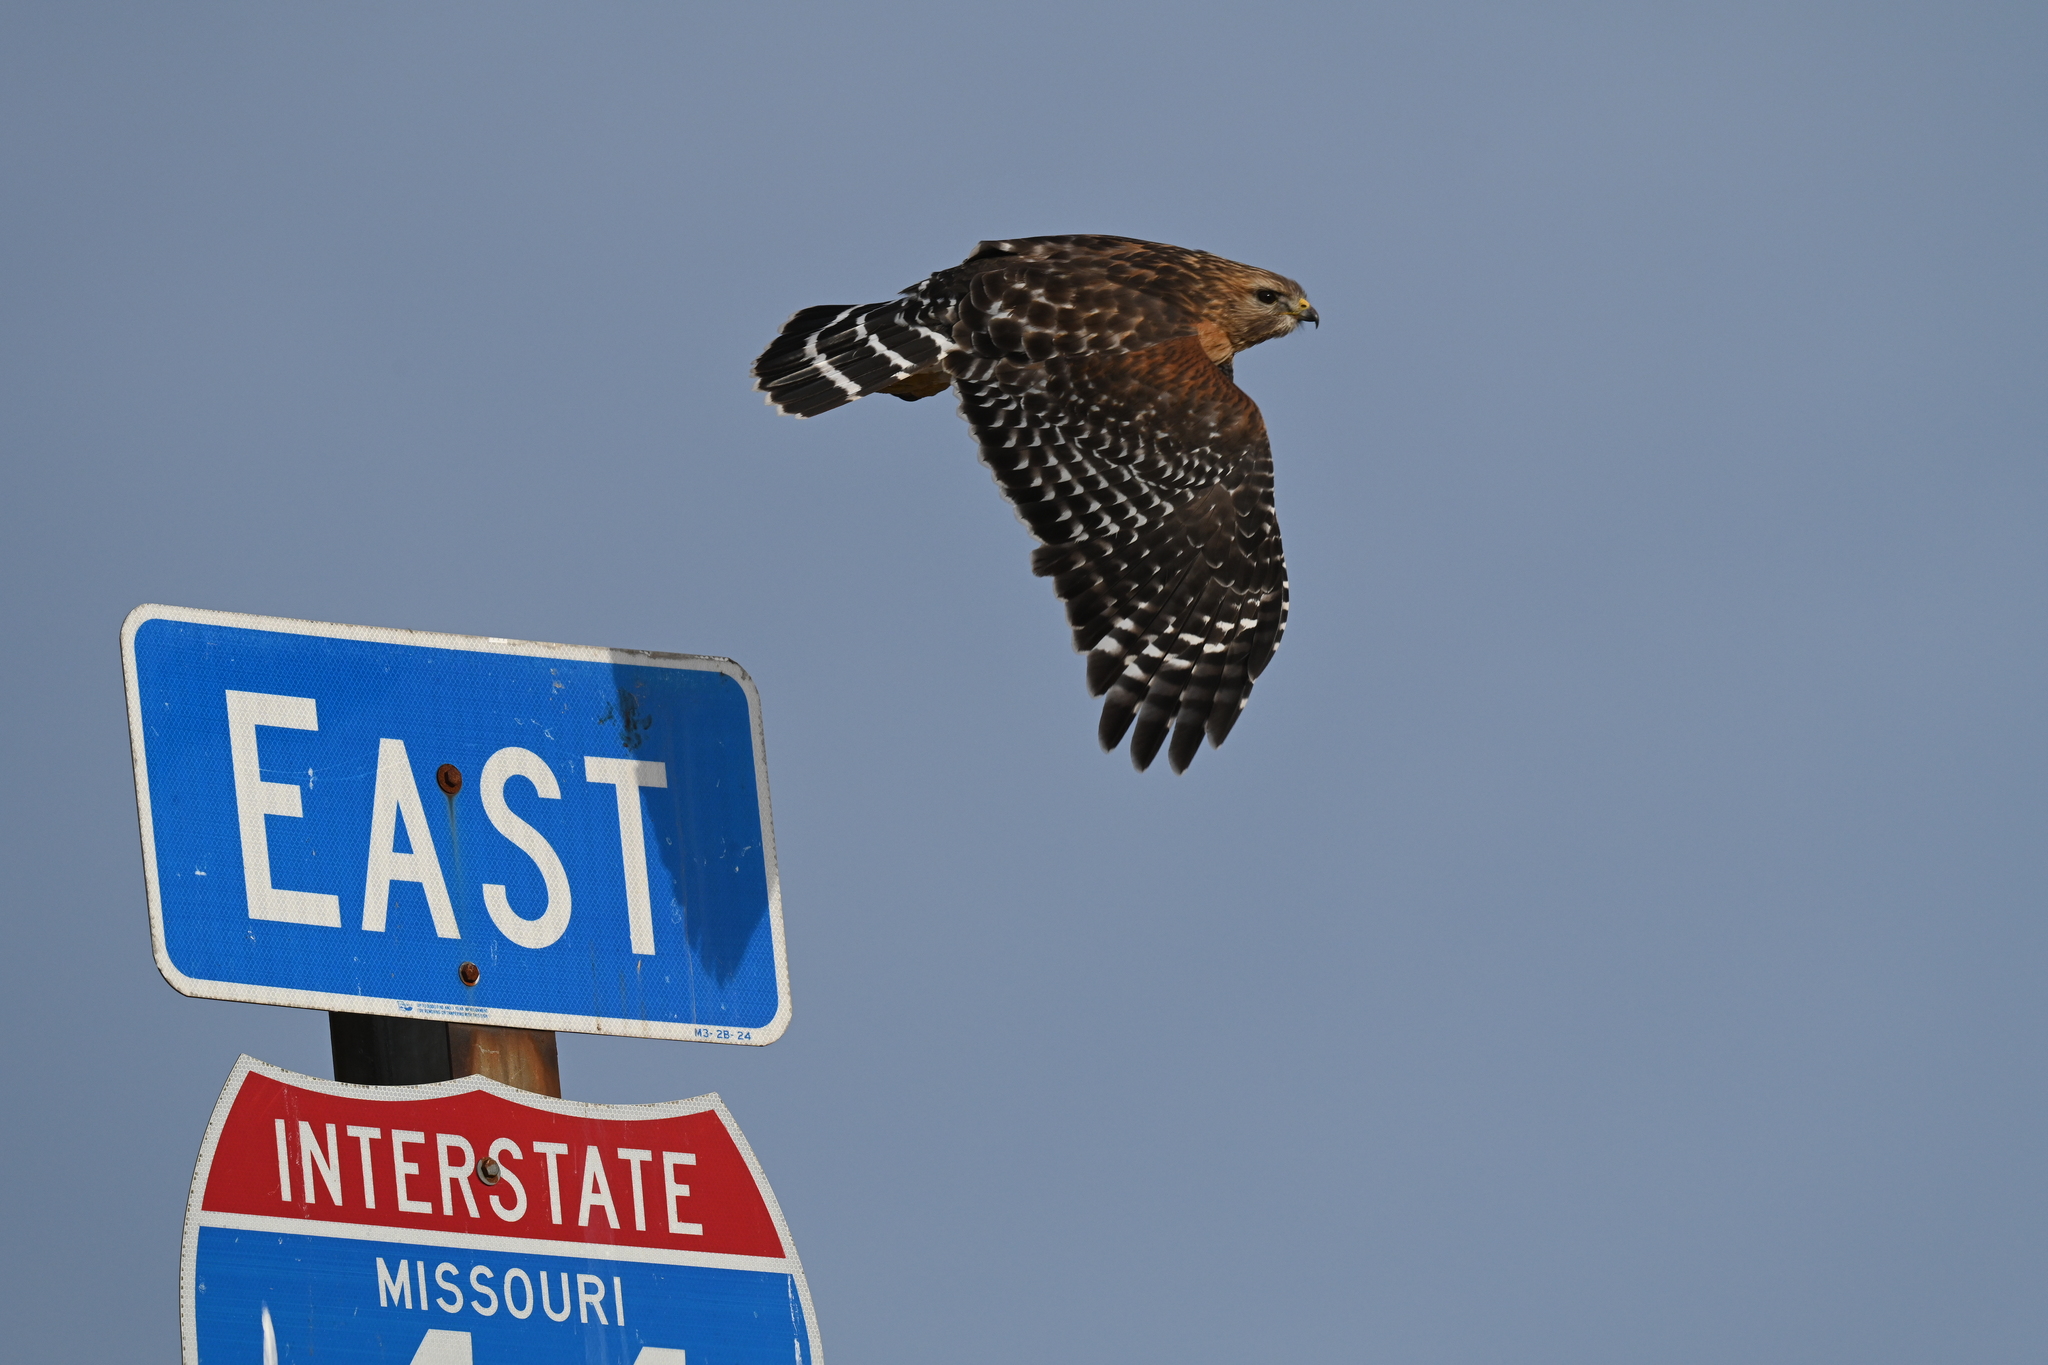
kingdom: Animalia
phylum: Chordata
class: Aves
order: Accipitriformes
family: Accipitridae
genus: Buteo
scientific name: Buteo lineatus
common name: Red-shouldered hawk
